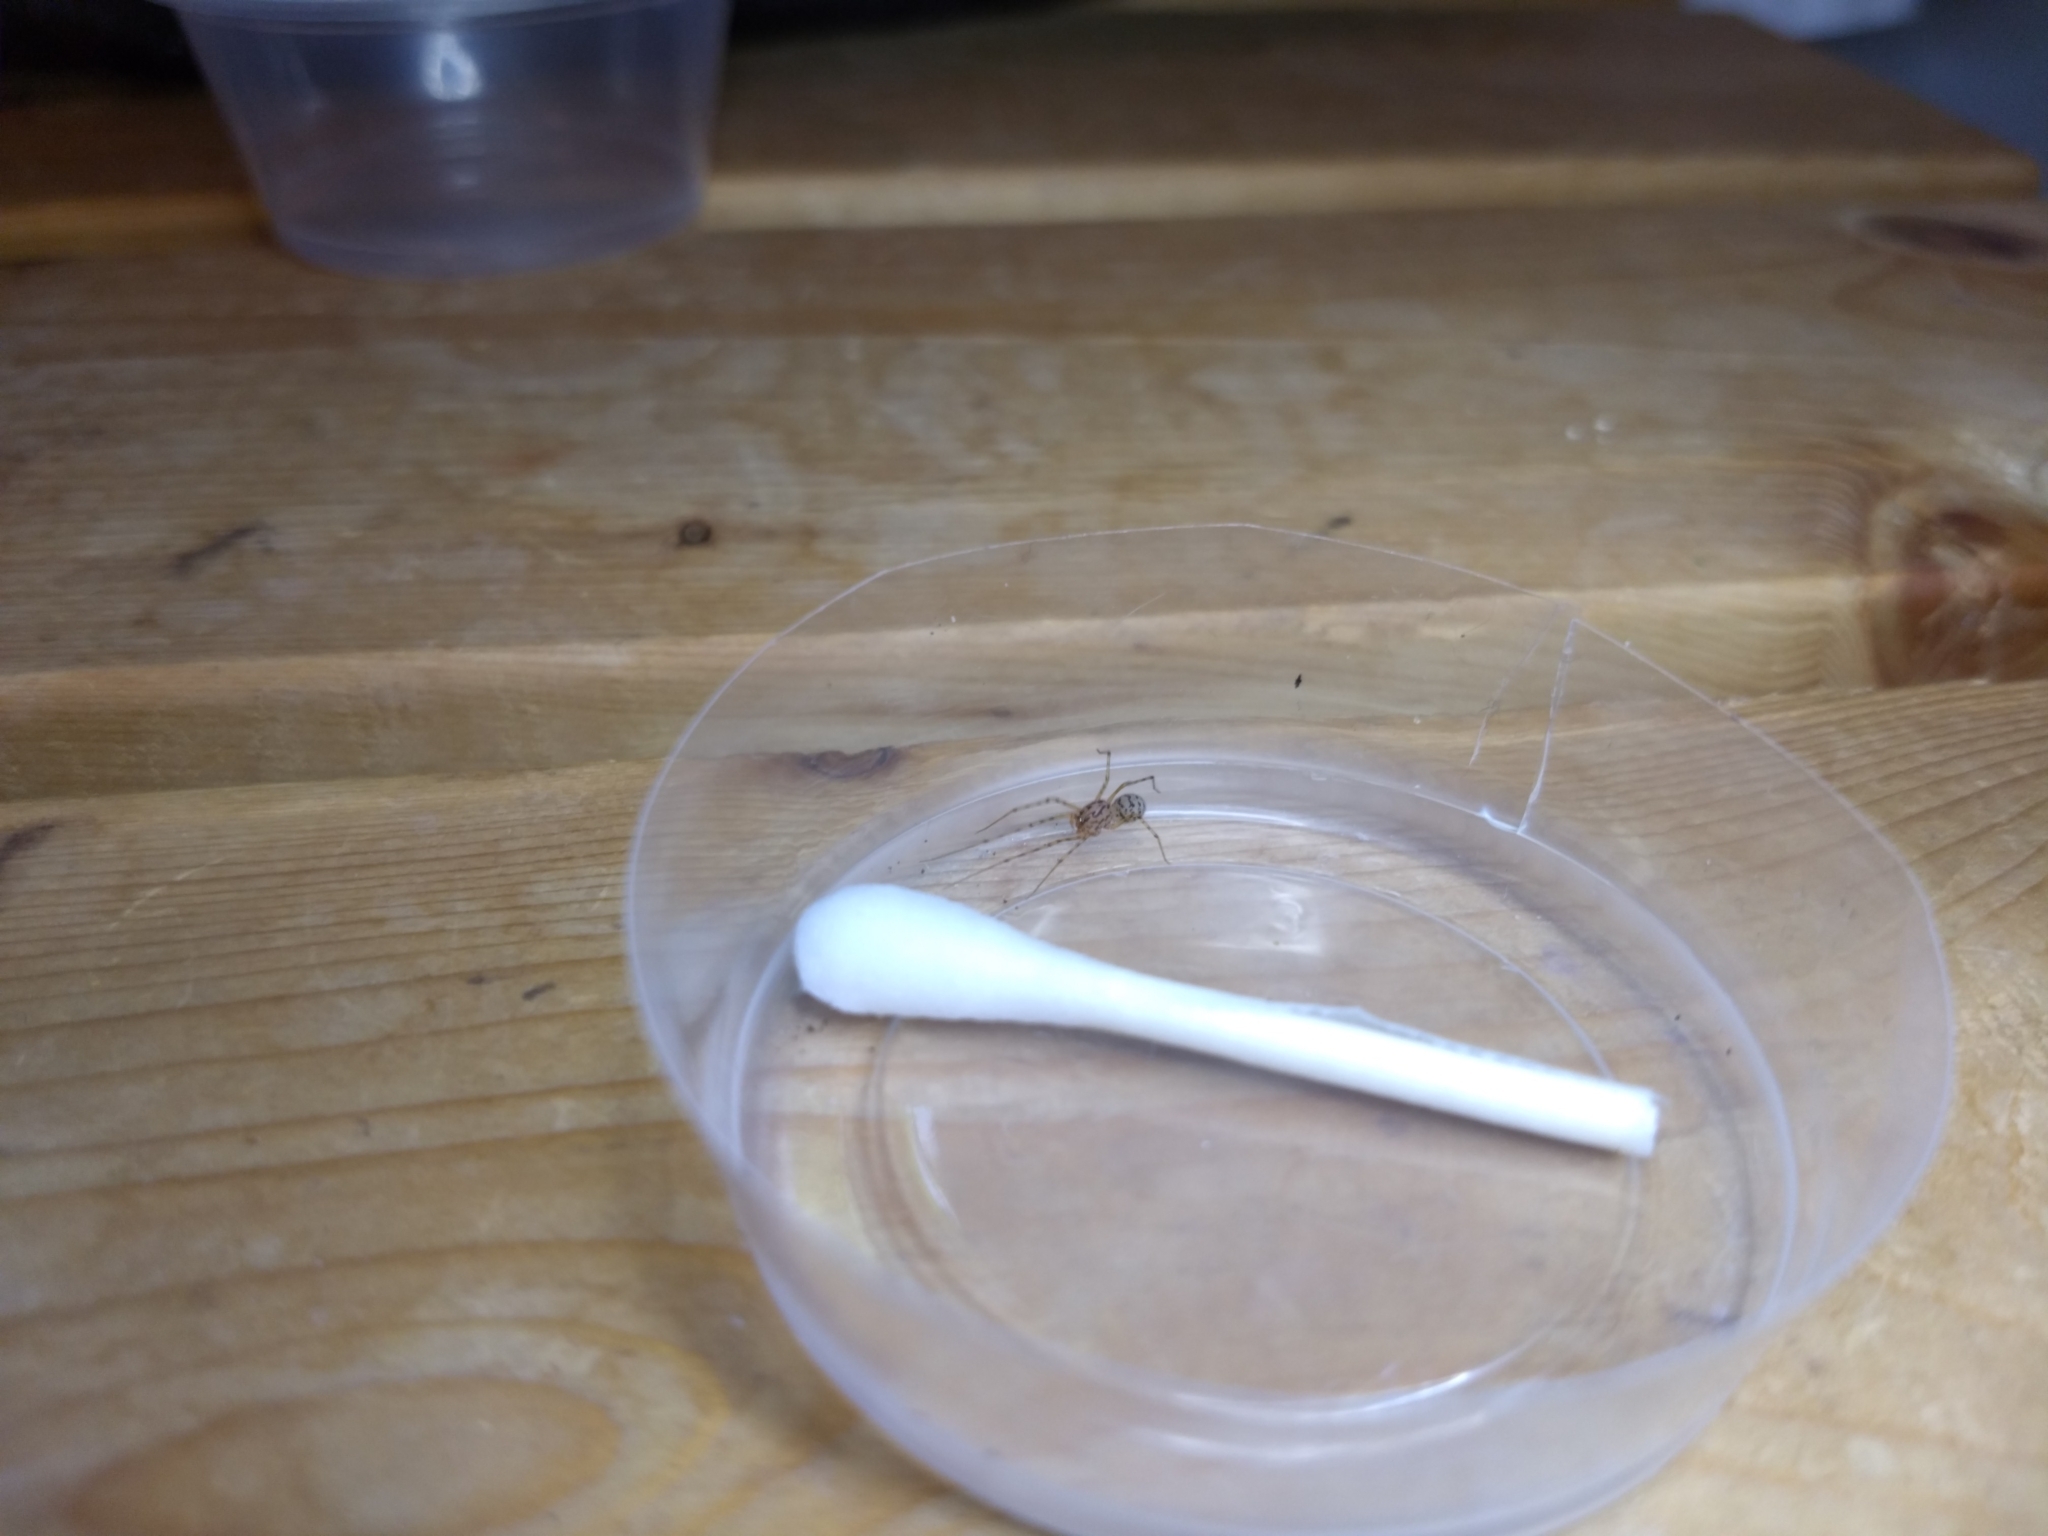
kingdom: Animalia
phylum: Arthropoda
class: Arachnida
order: Araneae
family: Scytodidae
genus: Scytodes
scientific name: Scytodes thoracica
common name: Spitting spider
